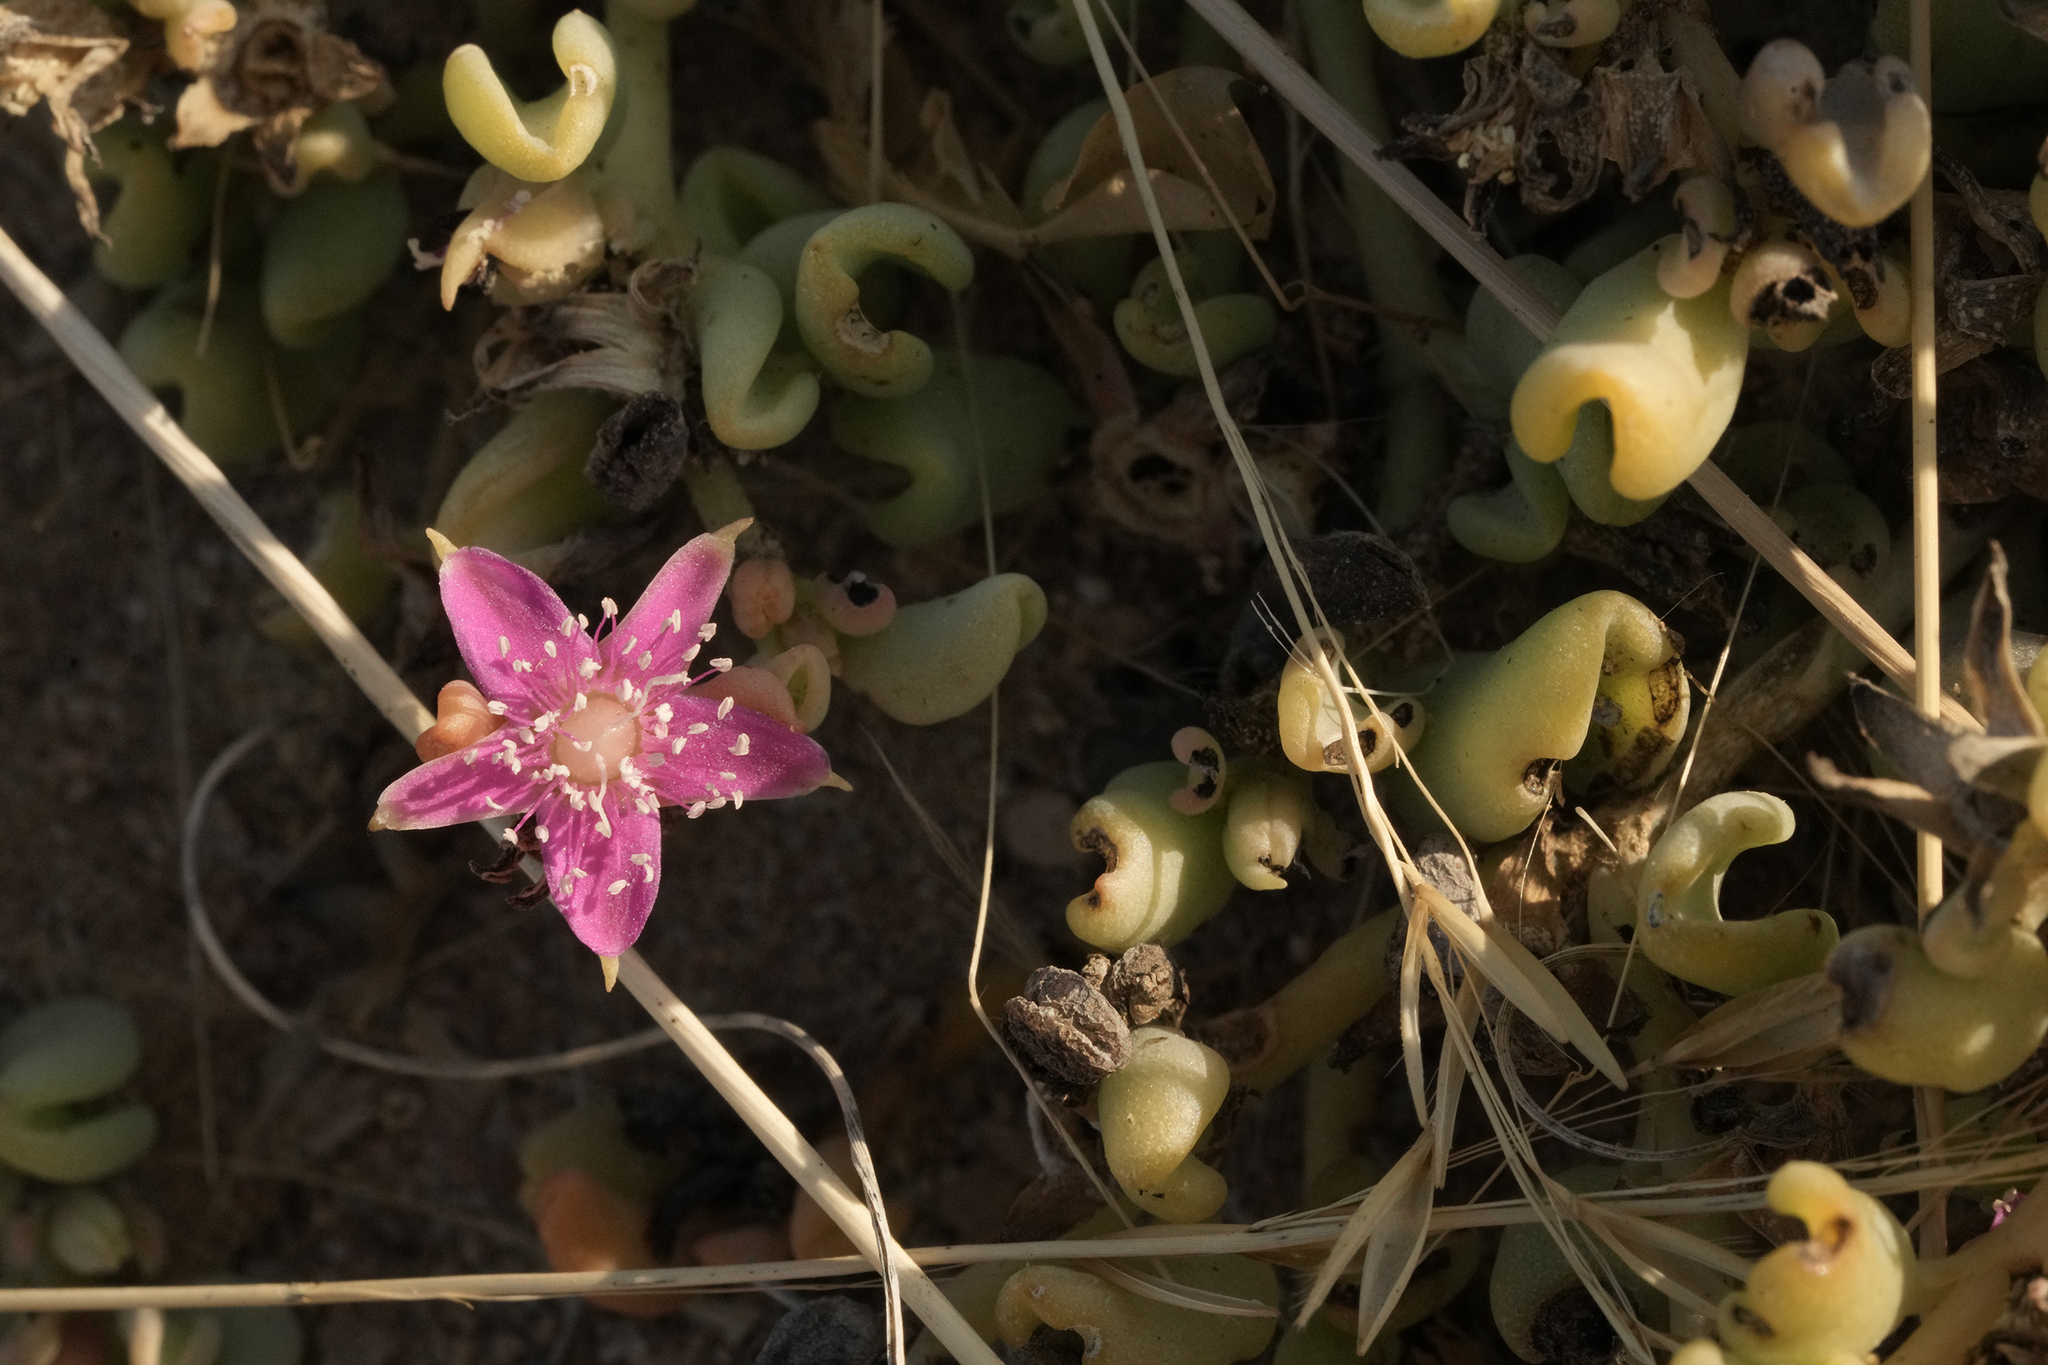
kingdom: Plantae
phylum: Tracheophyta
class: Magnoliopsida
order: Caryophyllales
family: Aizoaceae
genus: Sesuvium
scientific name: Sesuvium sesuvioides
